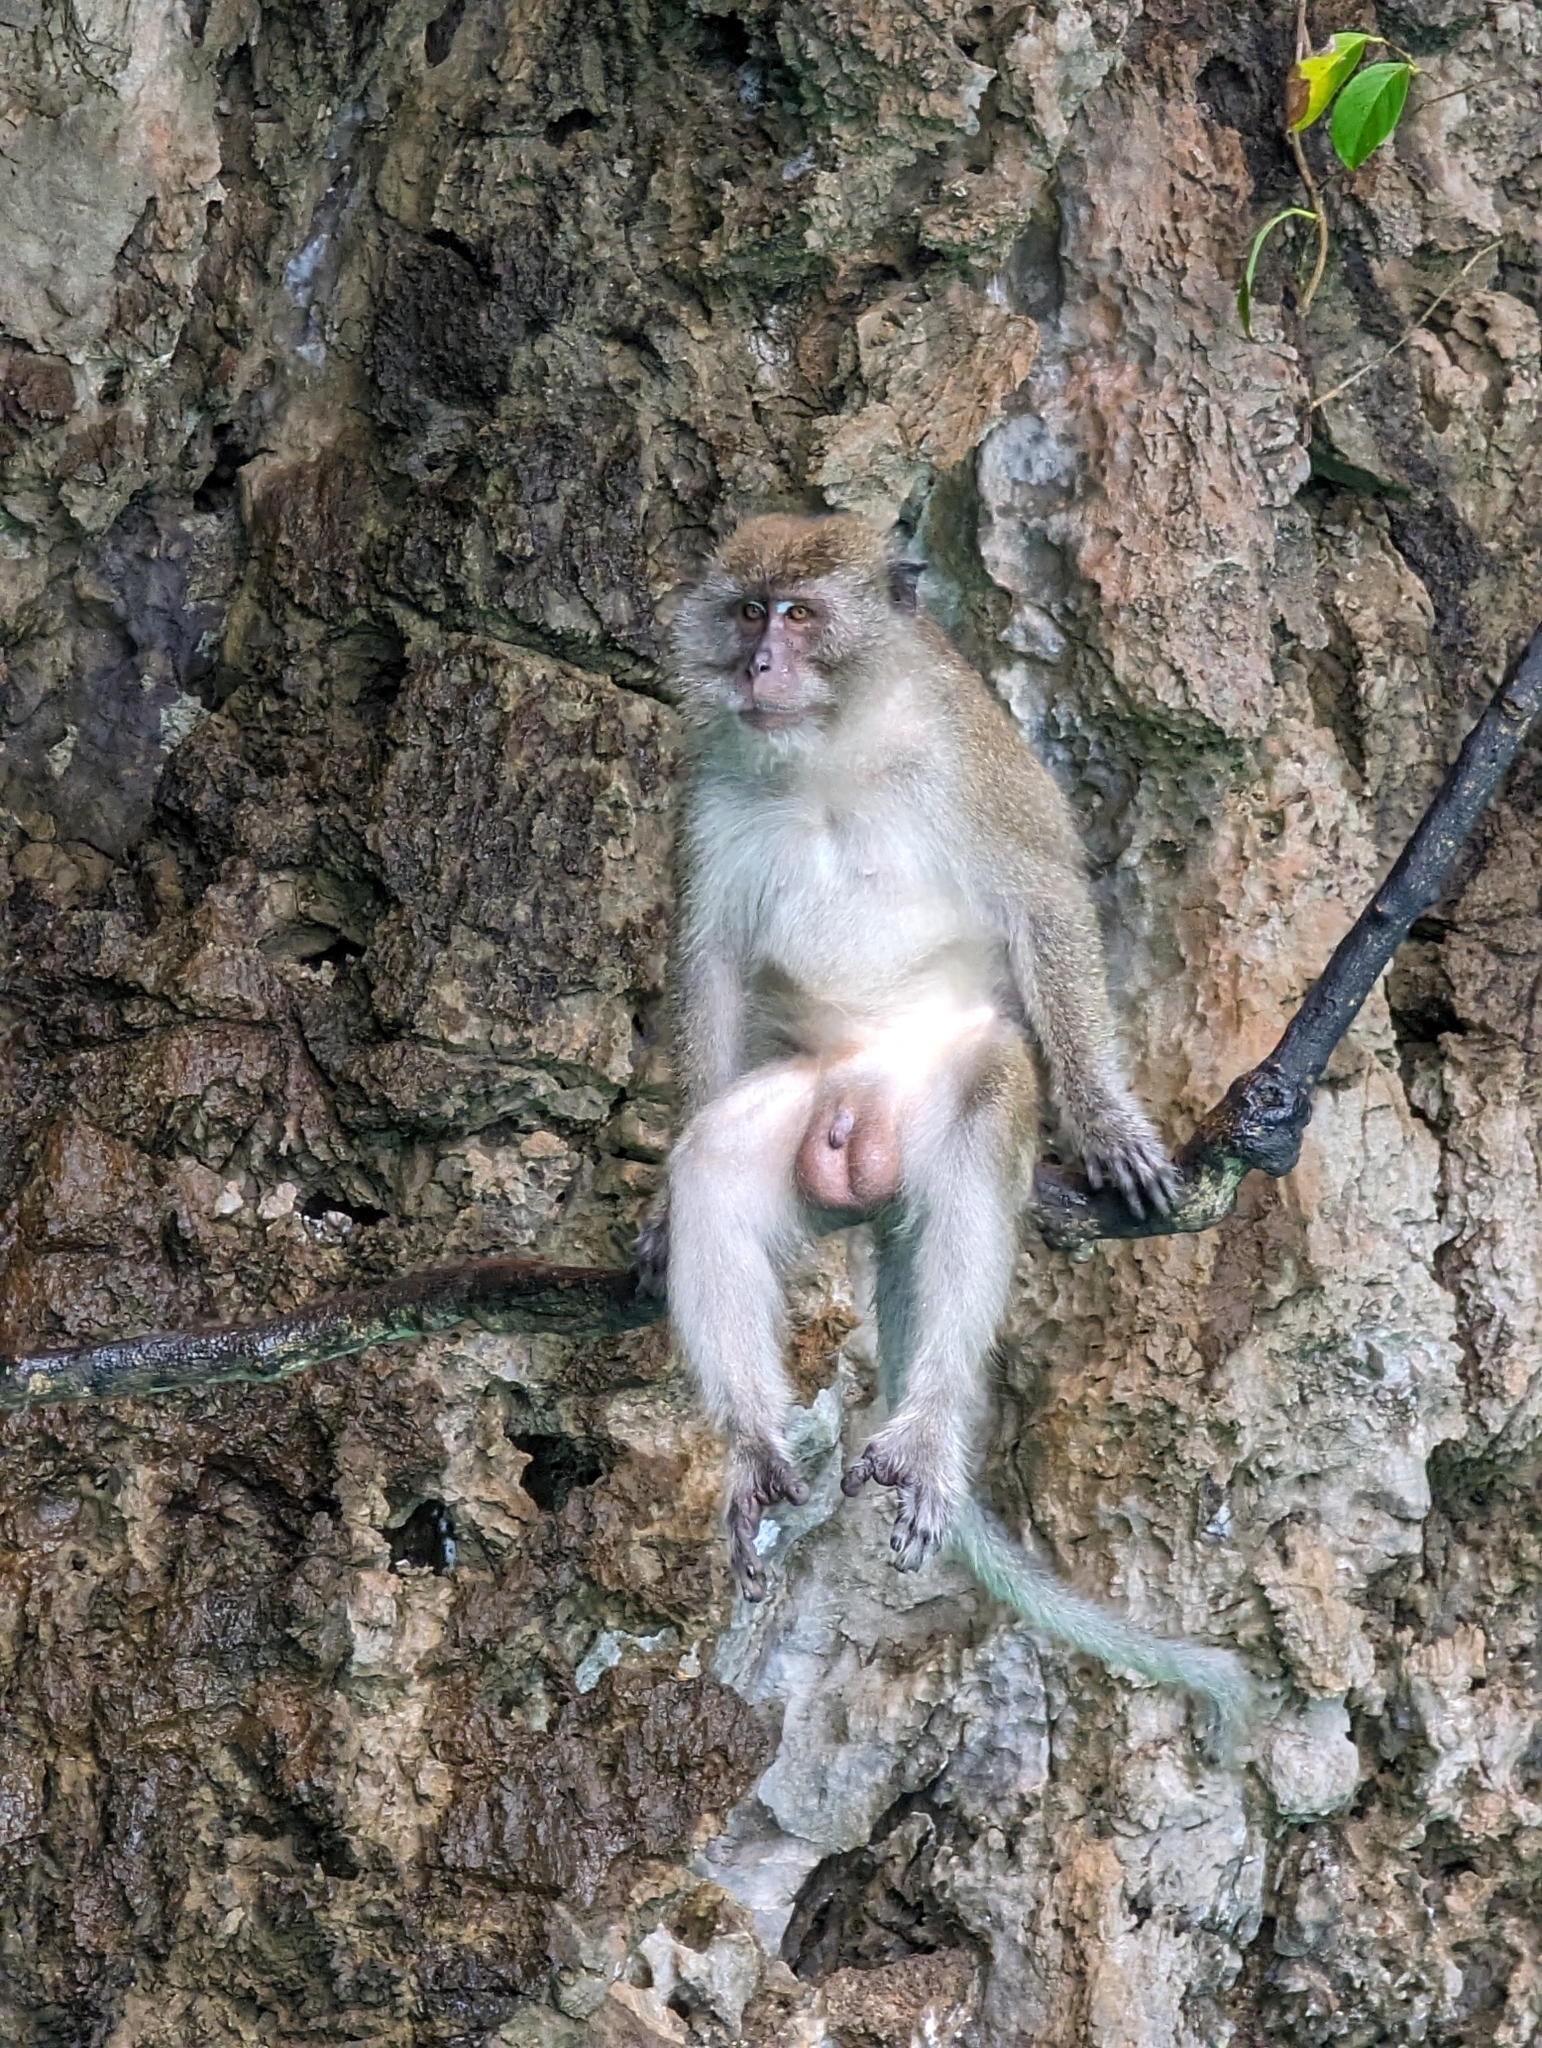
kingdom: Animalia
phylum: Chordata
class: Mammalia
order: Primates
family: Cercopithecidae
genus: Macaca
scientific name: Macaca fascicularis
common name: Crab-eating macaque
